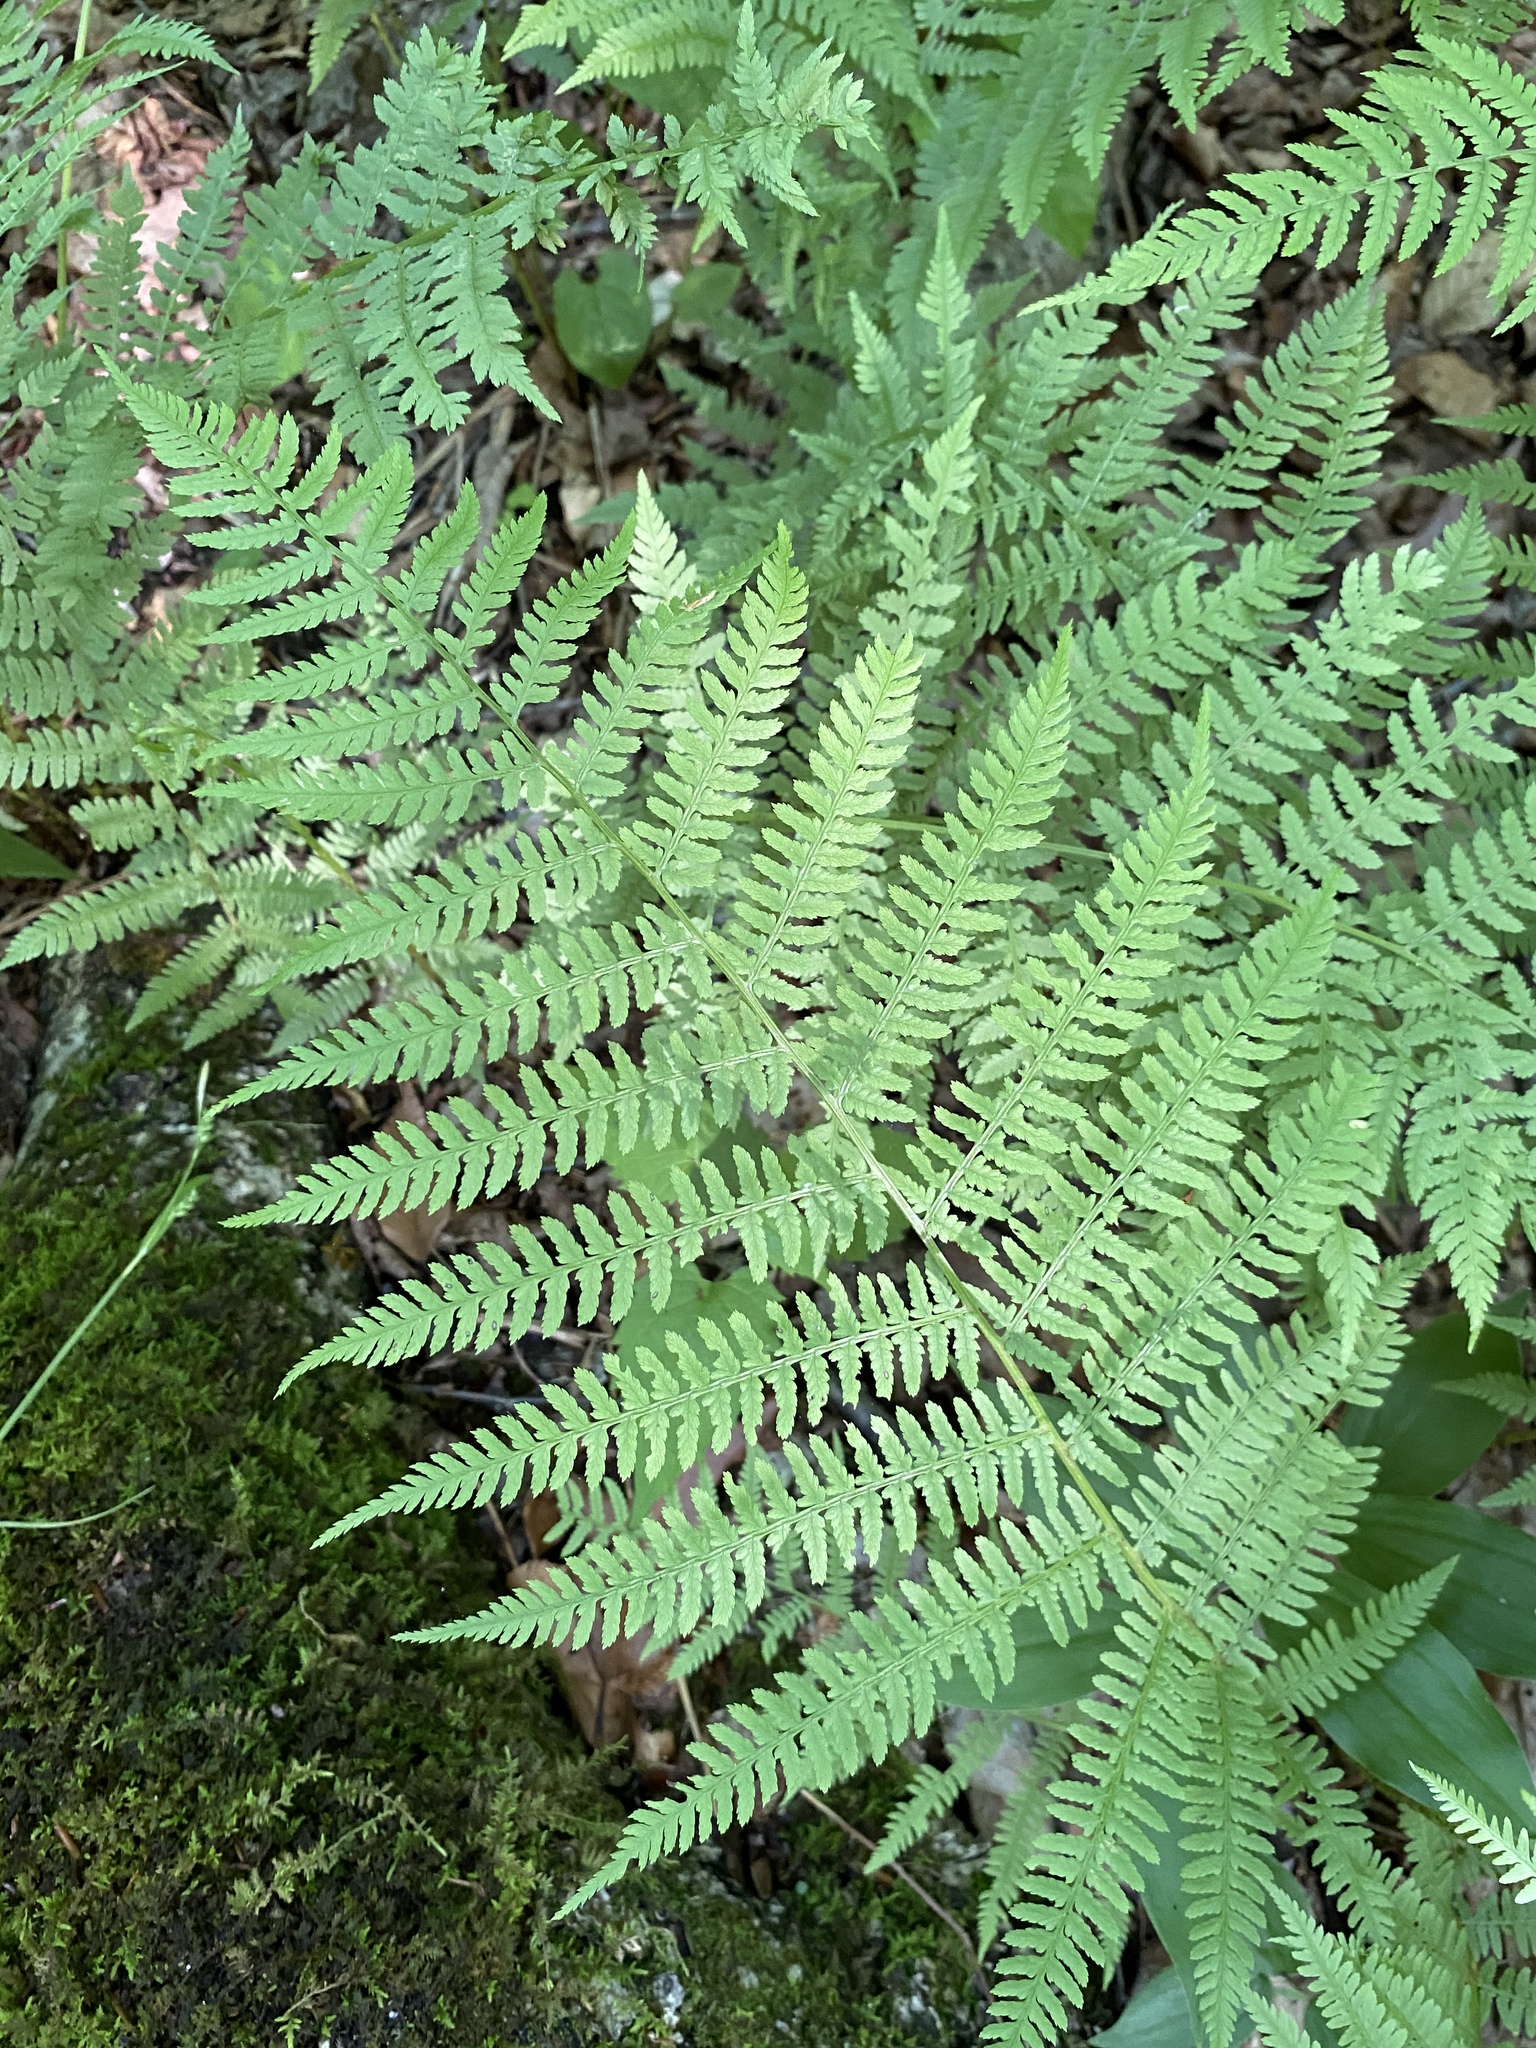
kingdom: Plantae
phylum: Tracheophyta
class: Polypodiopsida
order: Polypodiales
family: Athyriaceae
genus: Athyrium
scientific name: Athyrium angustum
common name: Northern lady fern
